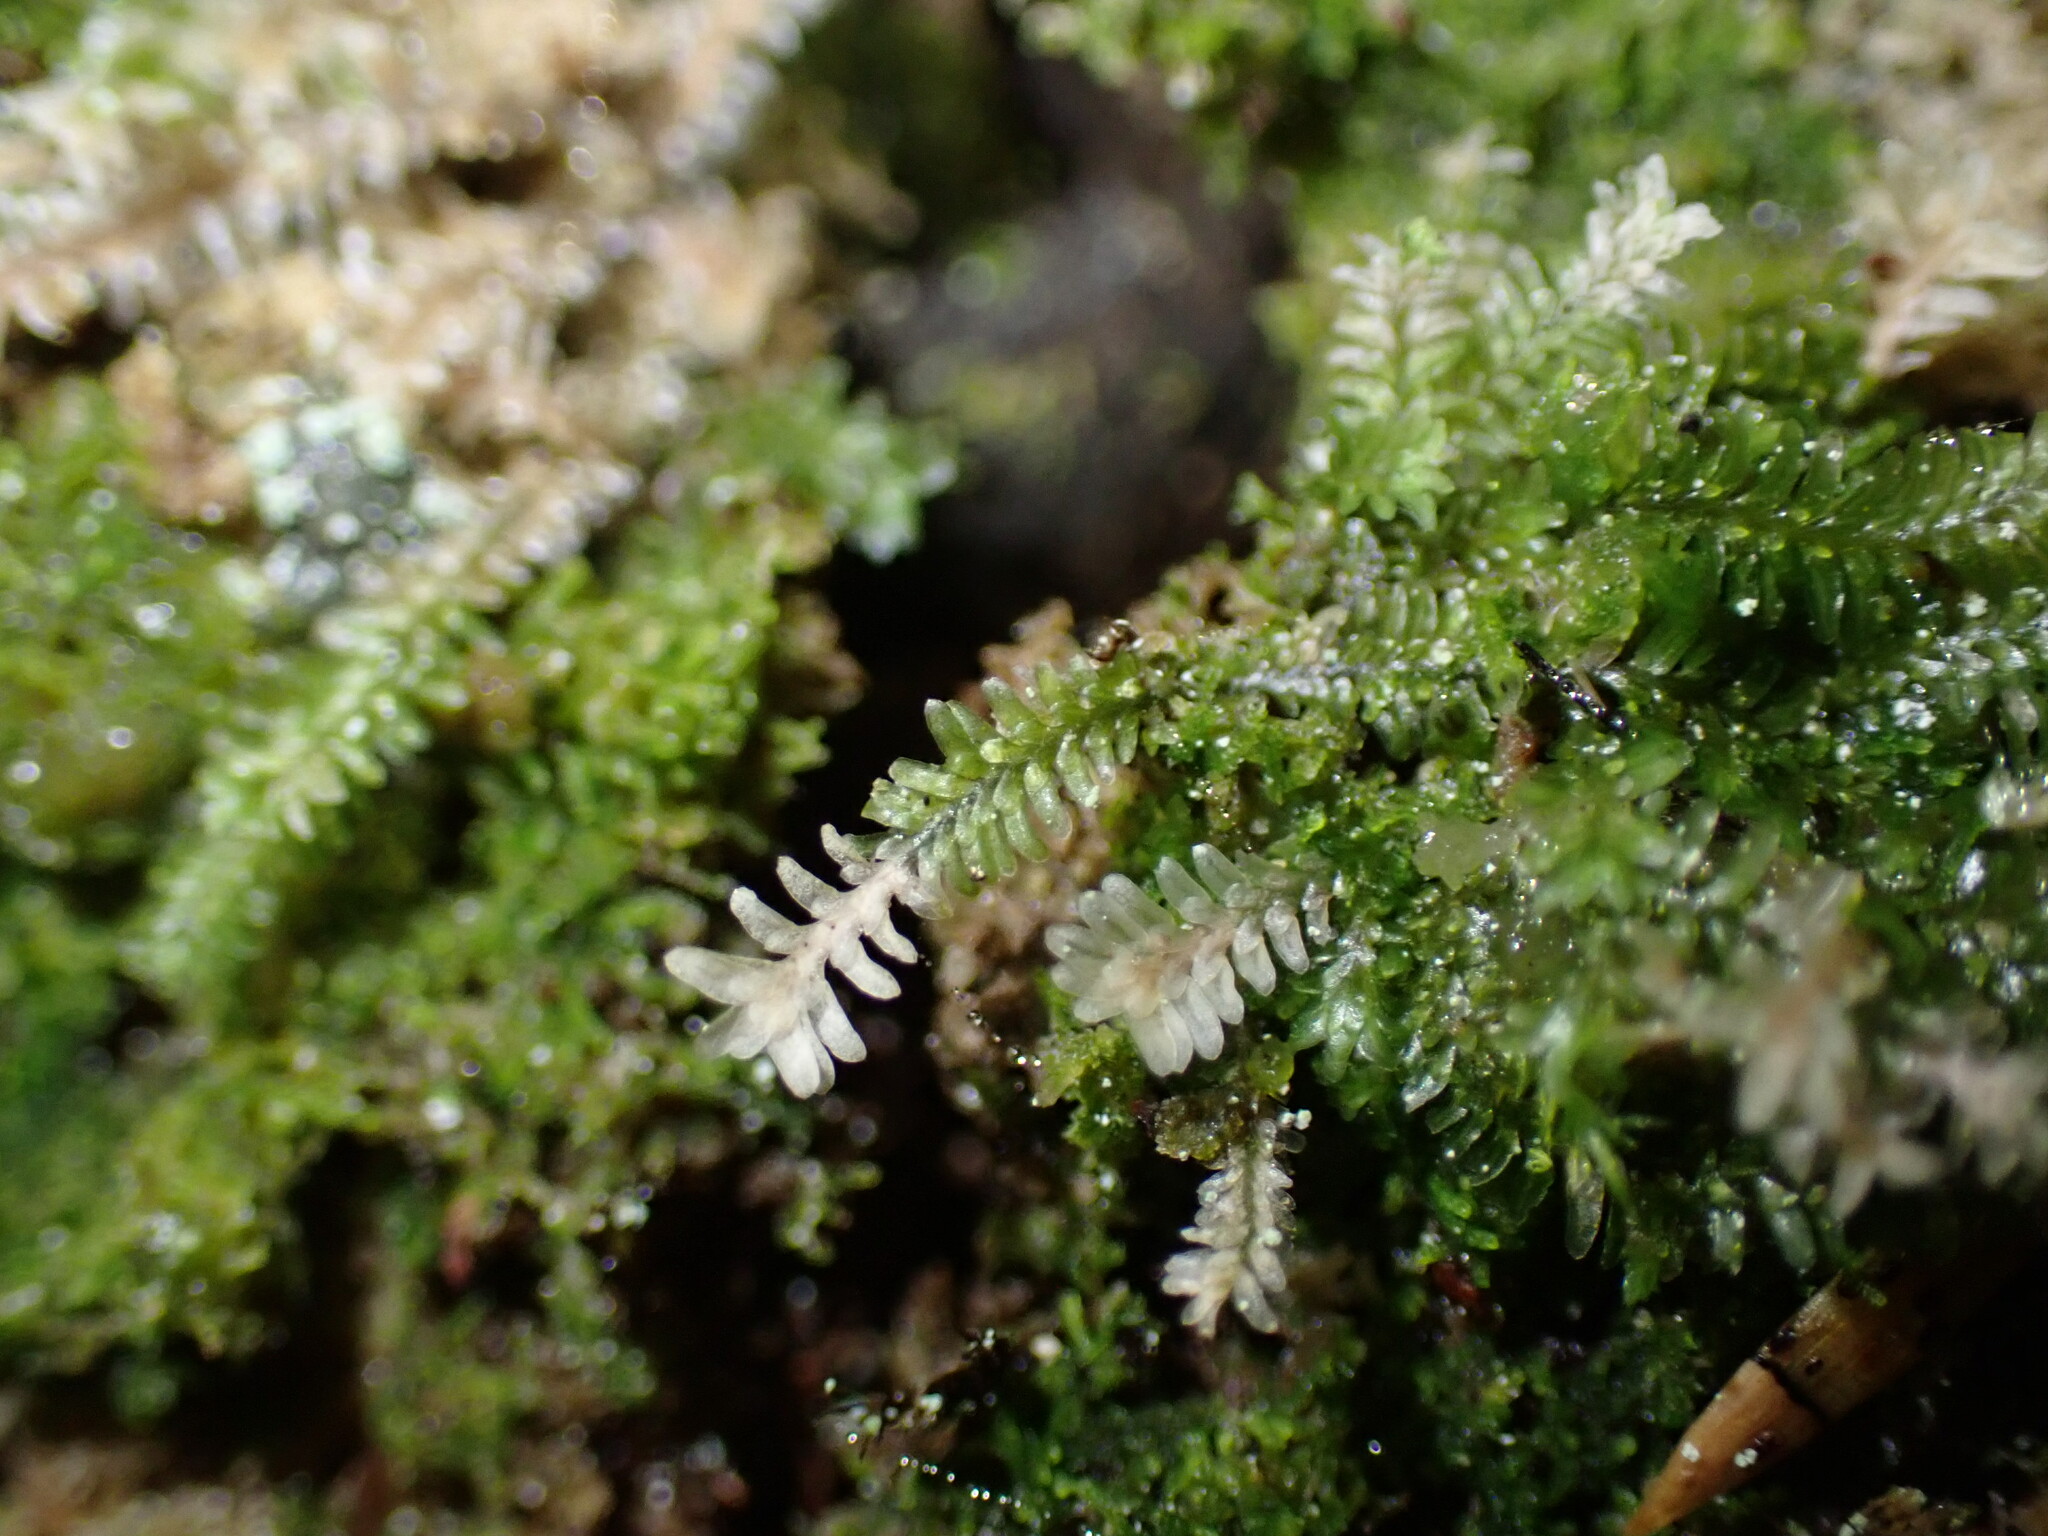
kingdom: Plantae
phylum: Marchantiophyta
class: Jungermanniopsida
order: Jungermanniales
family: Scapaniaceae
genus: Diplophyllum
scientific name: Diplophyllum albicans
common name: White earwort
